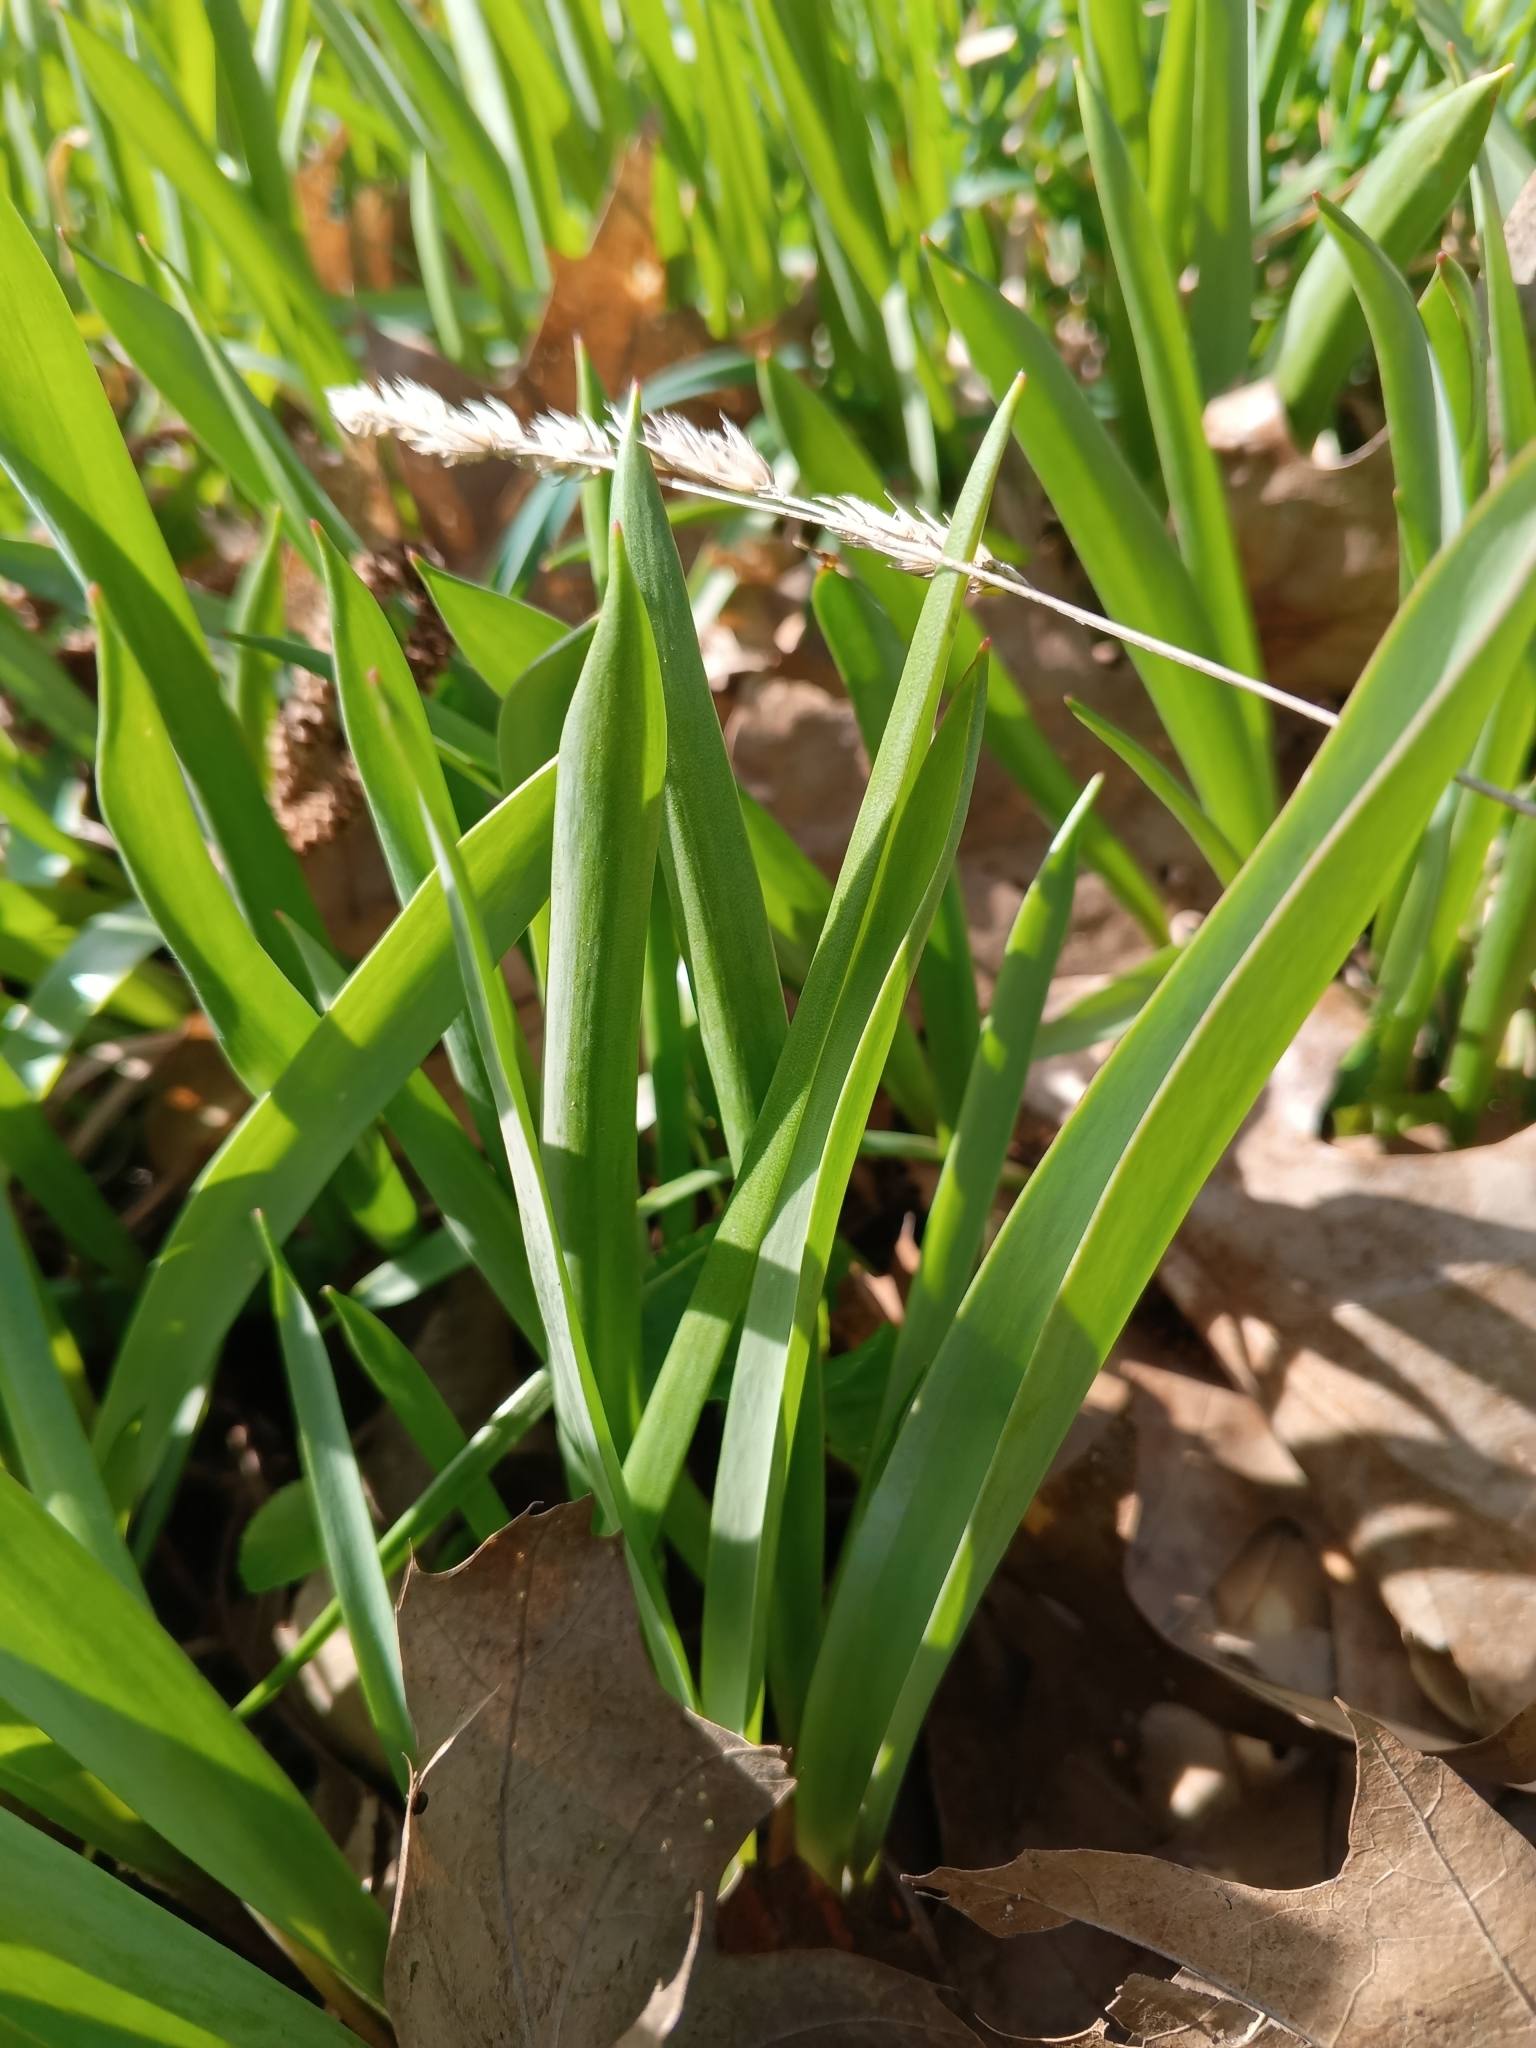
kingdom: Plantae
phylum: Tracheophyta
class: Liliopsida
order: Liliales
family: Liliaceae
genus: Tulipa
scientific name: Tulipa sylvestris
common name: Wild tulip
